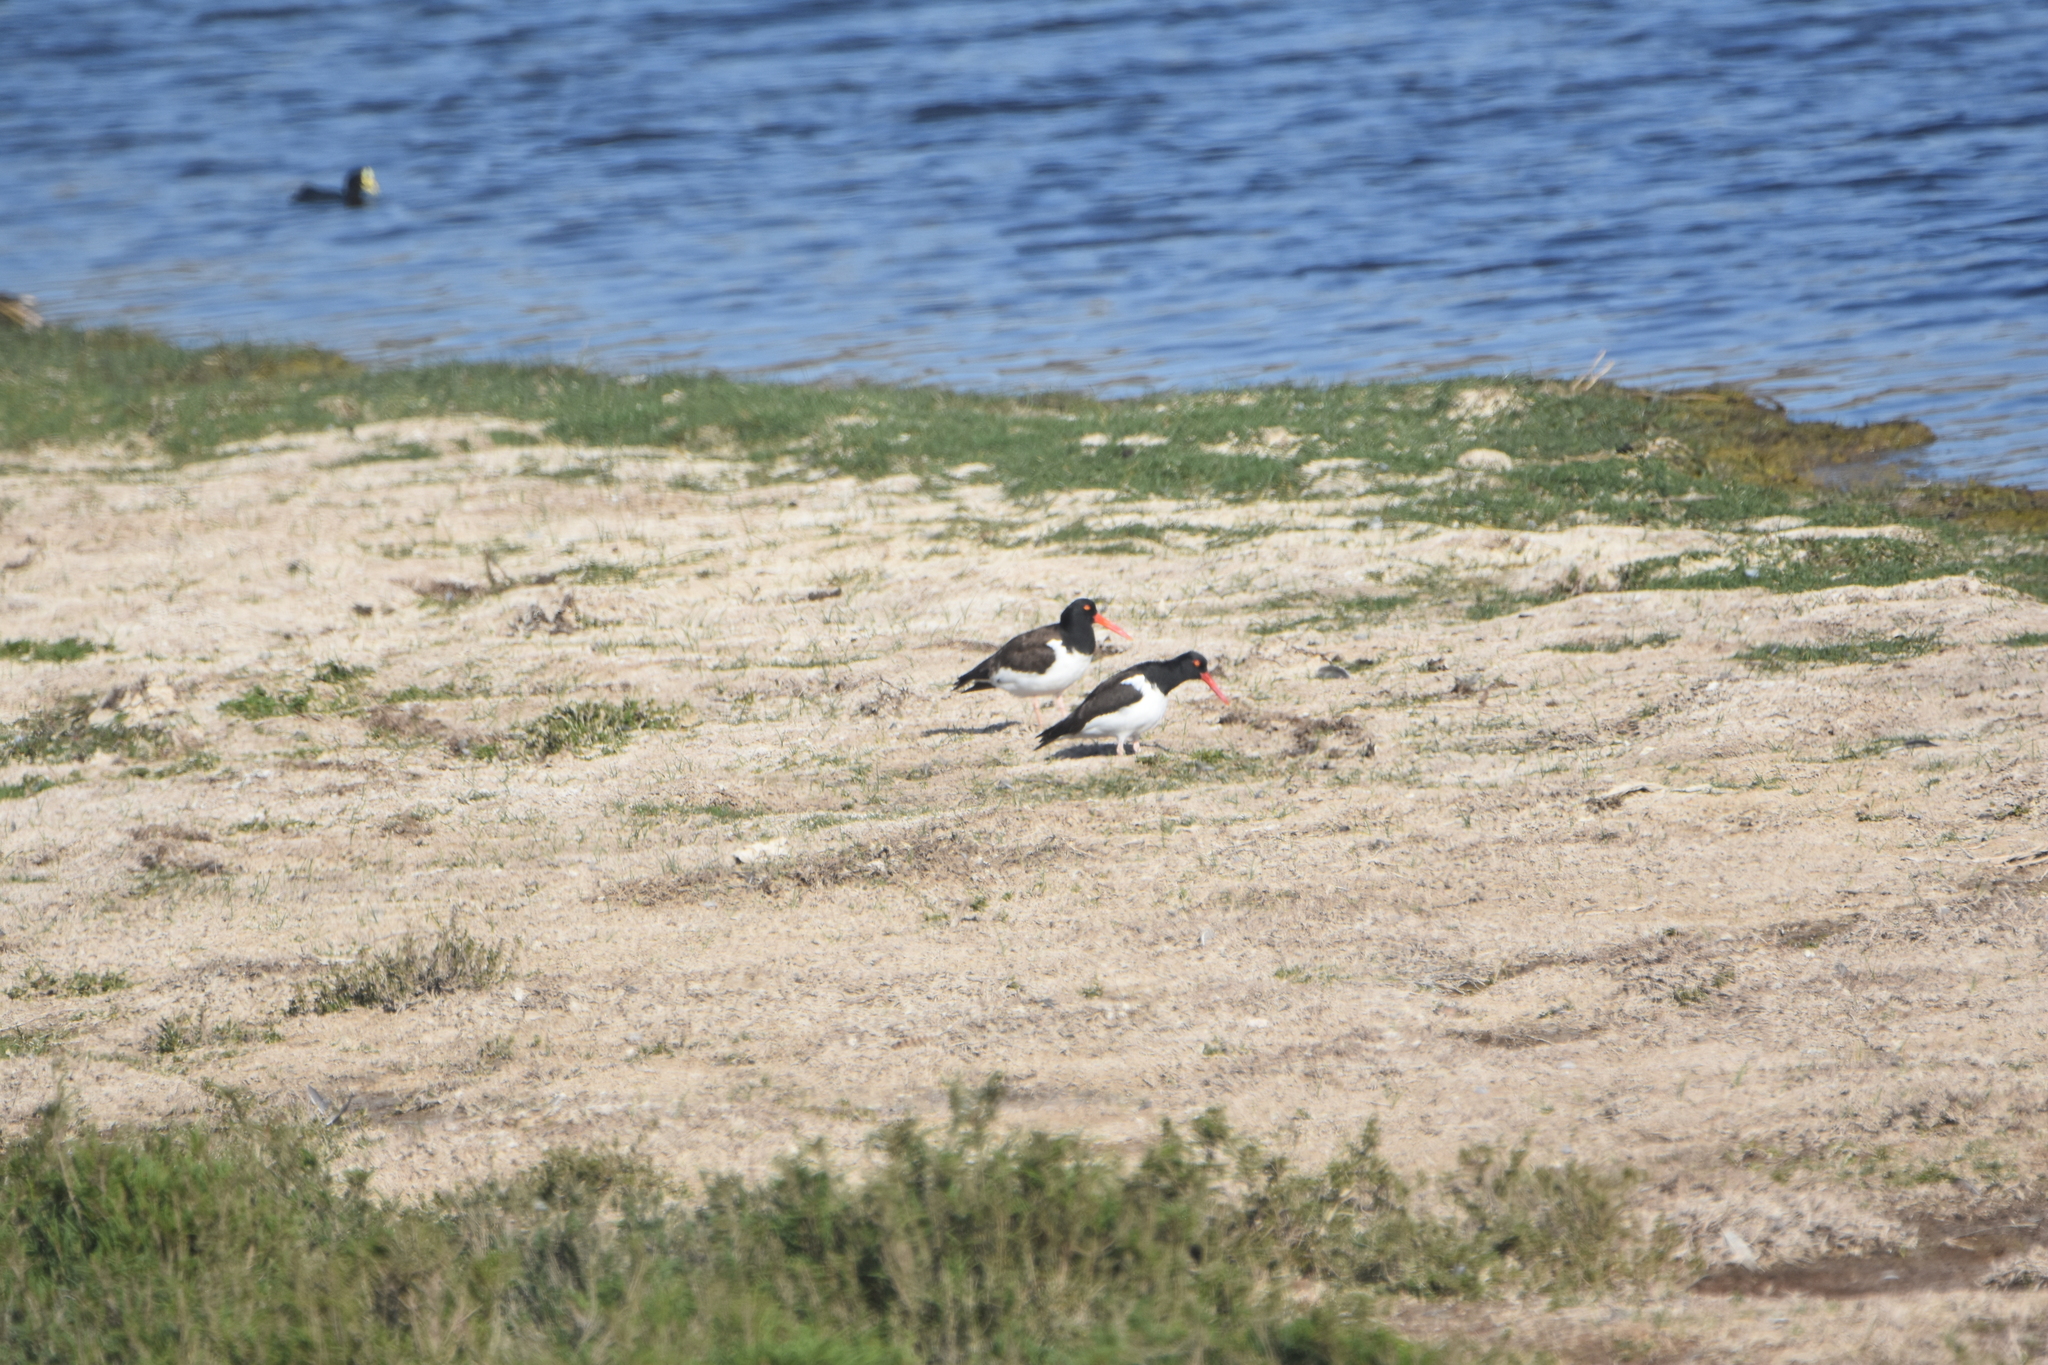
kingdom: Animalia
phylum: Chordata
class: Aves
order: Charadriiformes
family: Haematopodidae
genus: Haematopus
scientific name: Haematopus palliatus
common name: American oystercatcher
